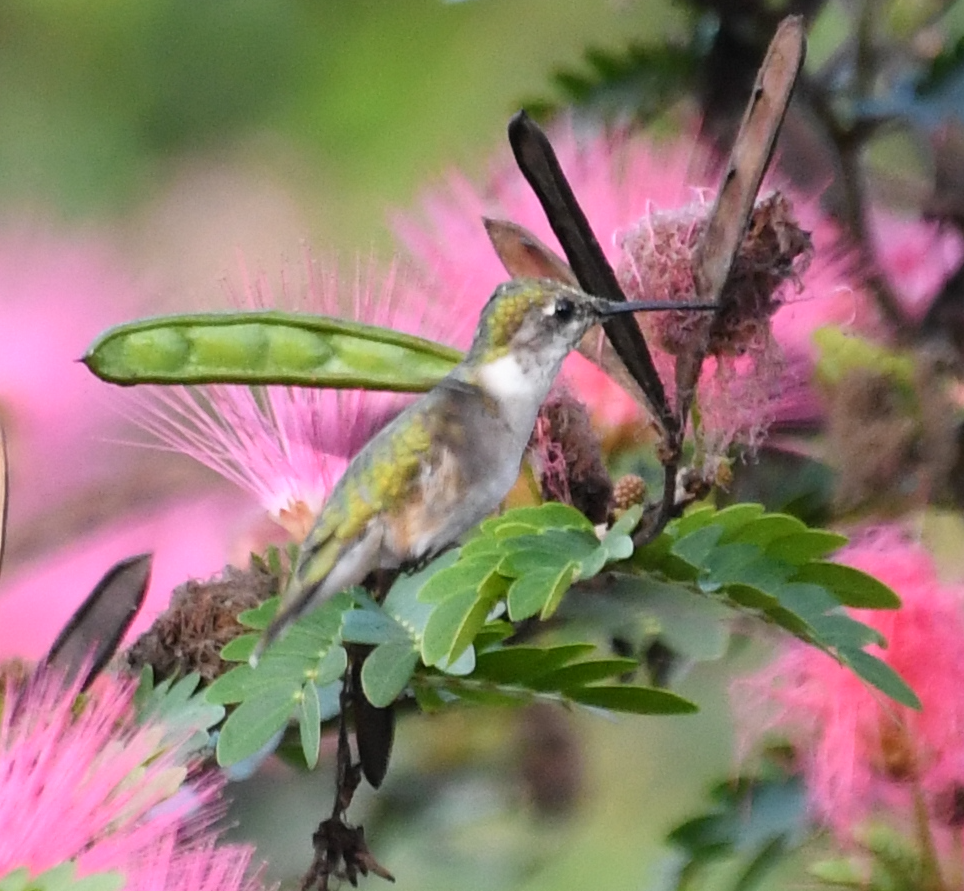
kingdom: Animalia
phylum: Chordata
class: Aves
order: Apodiformes
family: Trochilidae
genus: Archilochus
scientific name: Archilochus colubris
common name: Ruby-throated hummingbird
